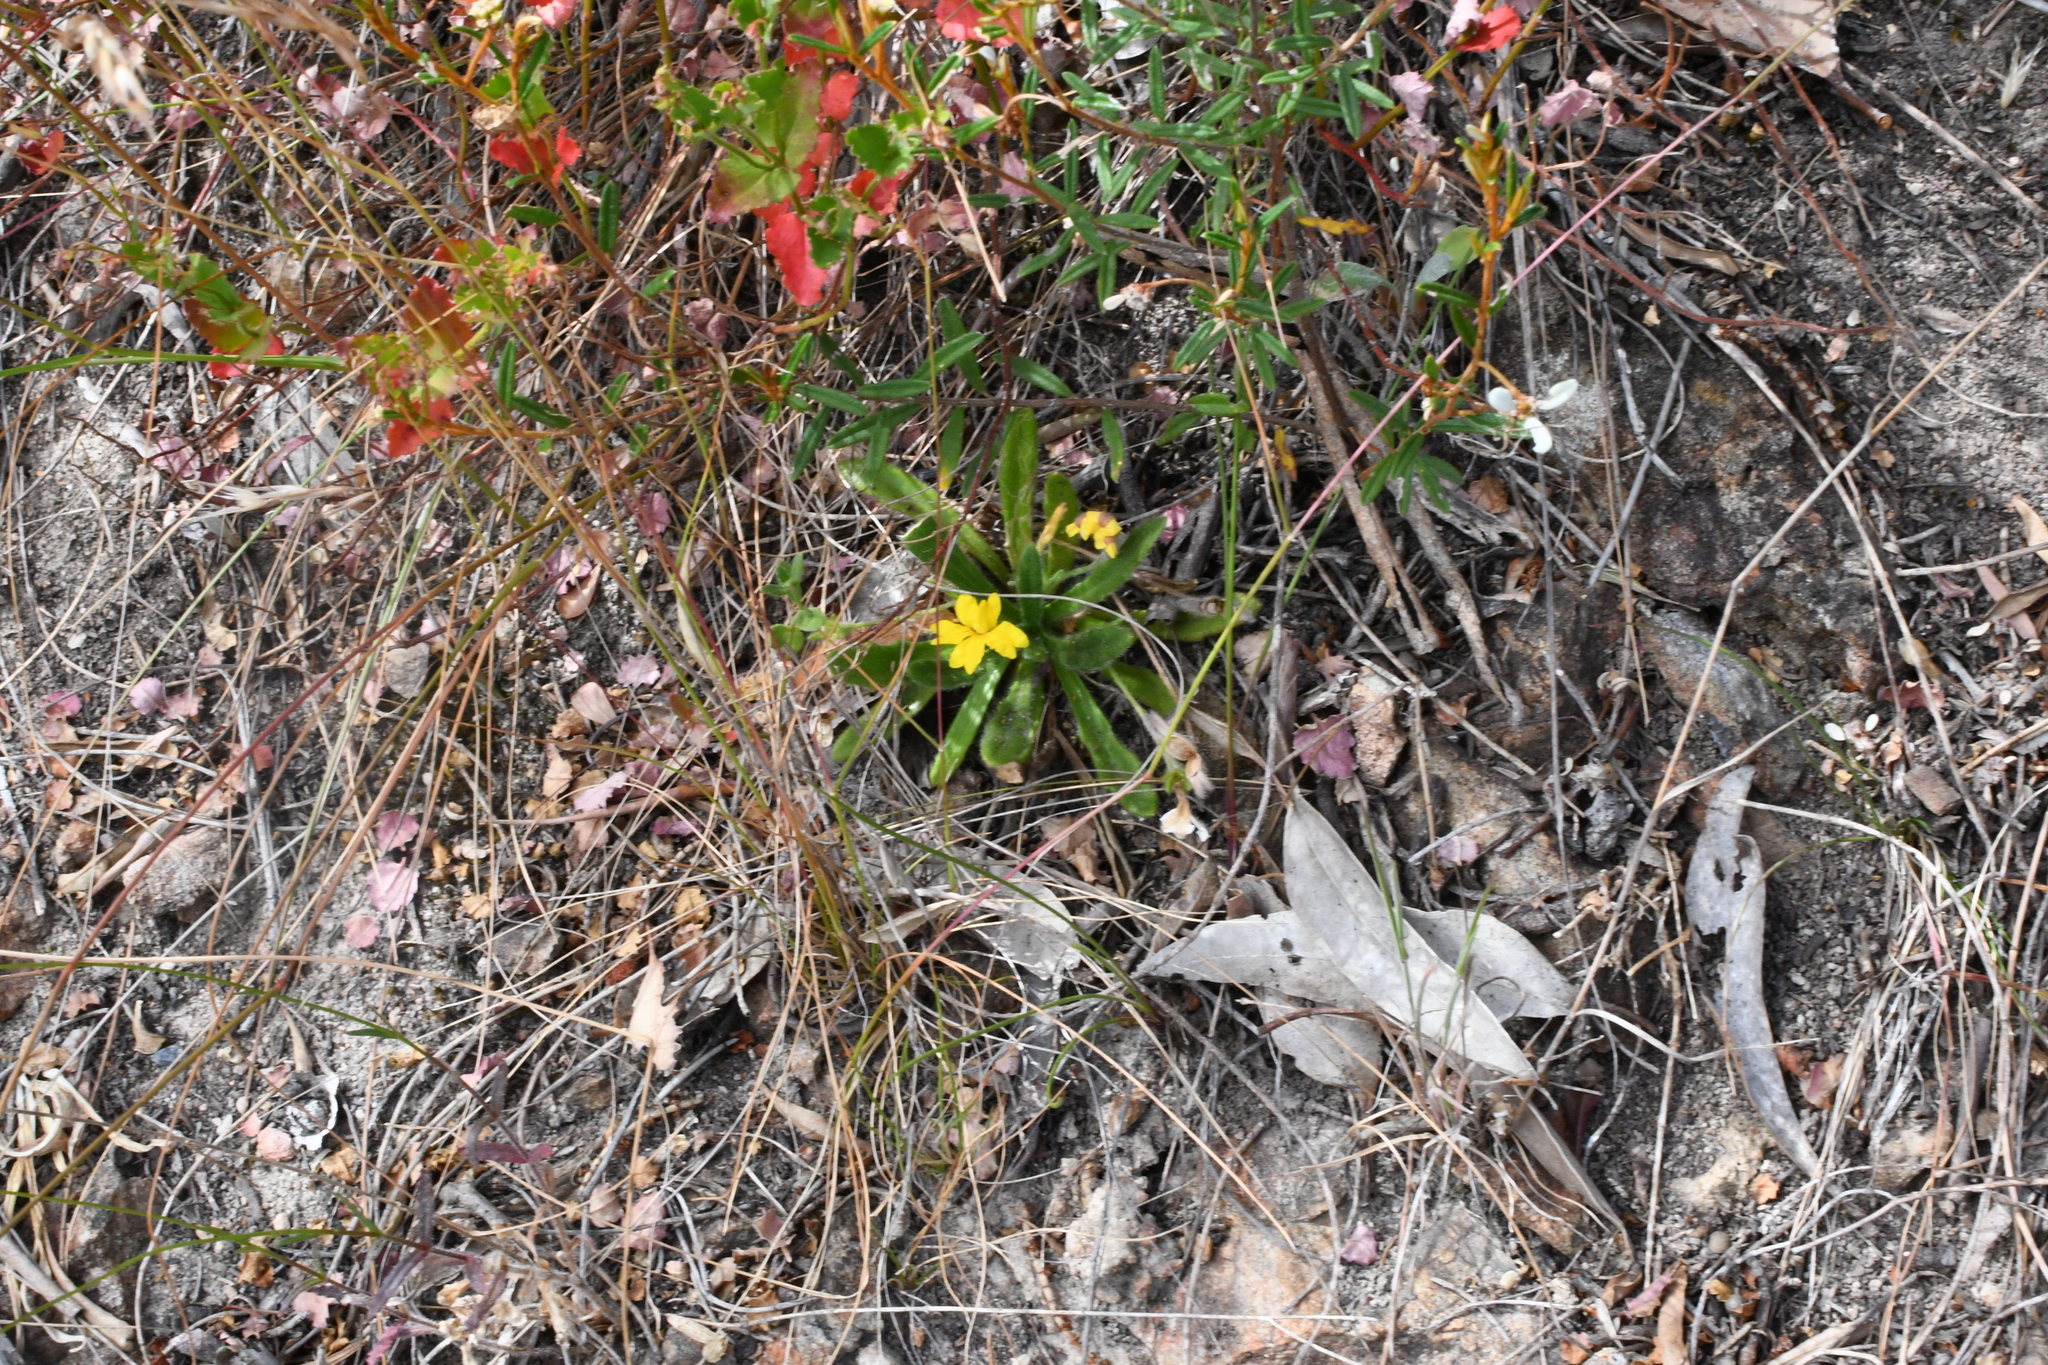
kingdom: Plantae
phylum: Tracheophyta
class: Magnoliopsida
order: Asterales
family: Goodeniaceae
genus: Goodenia
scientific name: Goodenia geniculata
